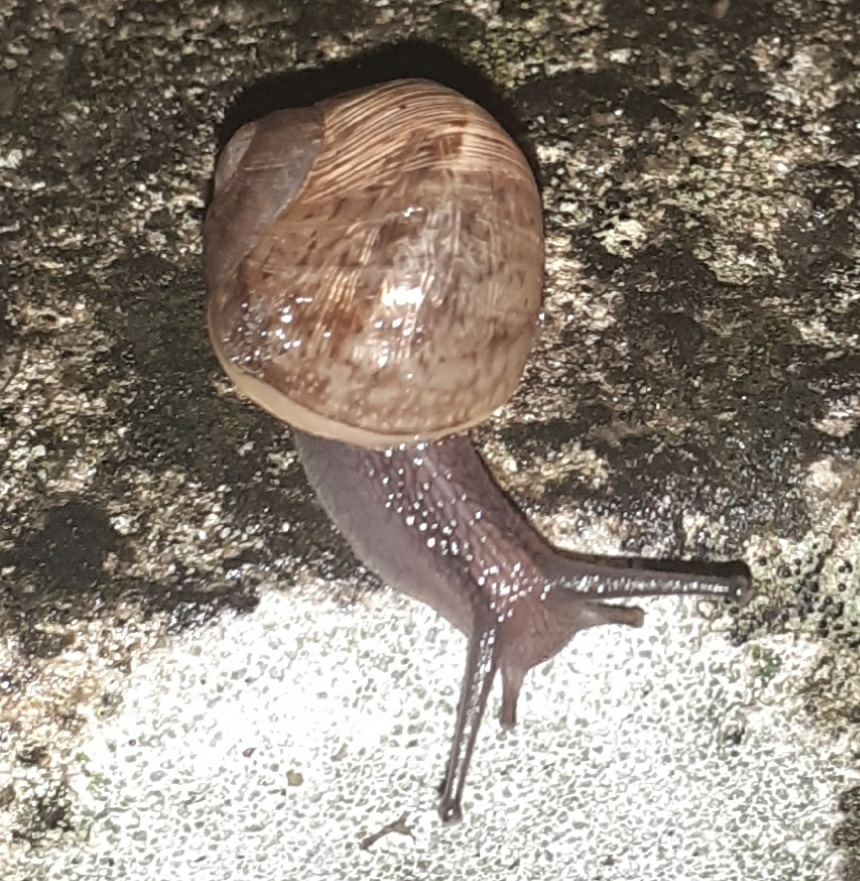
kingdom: Animalia
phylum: Mollusca
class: Gastropoda
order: Stylommatophora
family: Helicidae
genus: Cornu
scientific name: Cornu aspersum
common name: Brown garden snail
